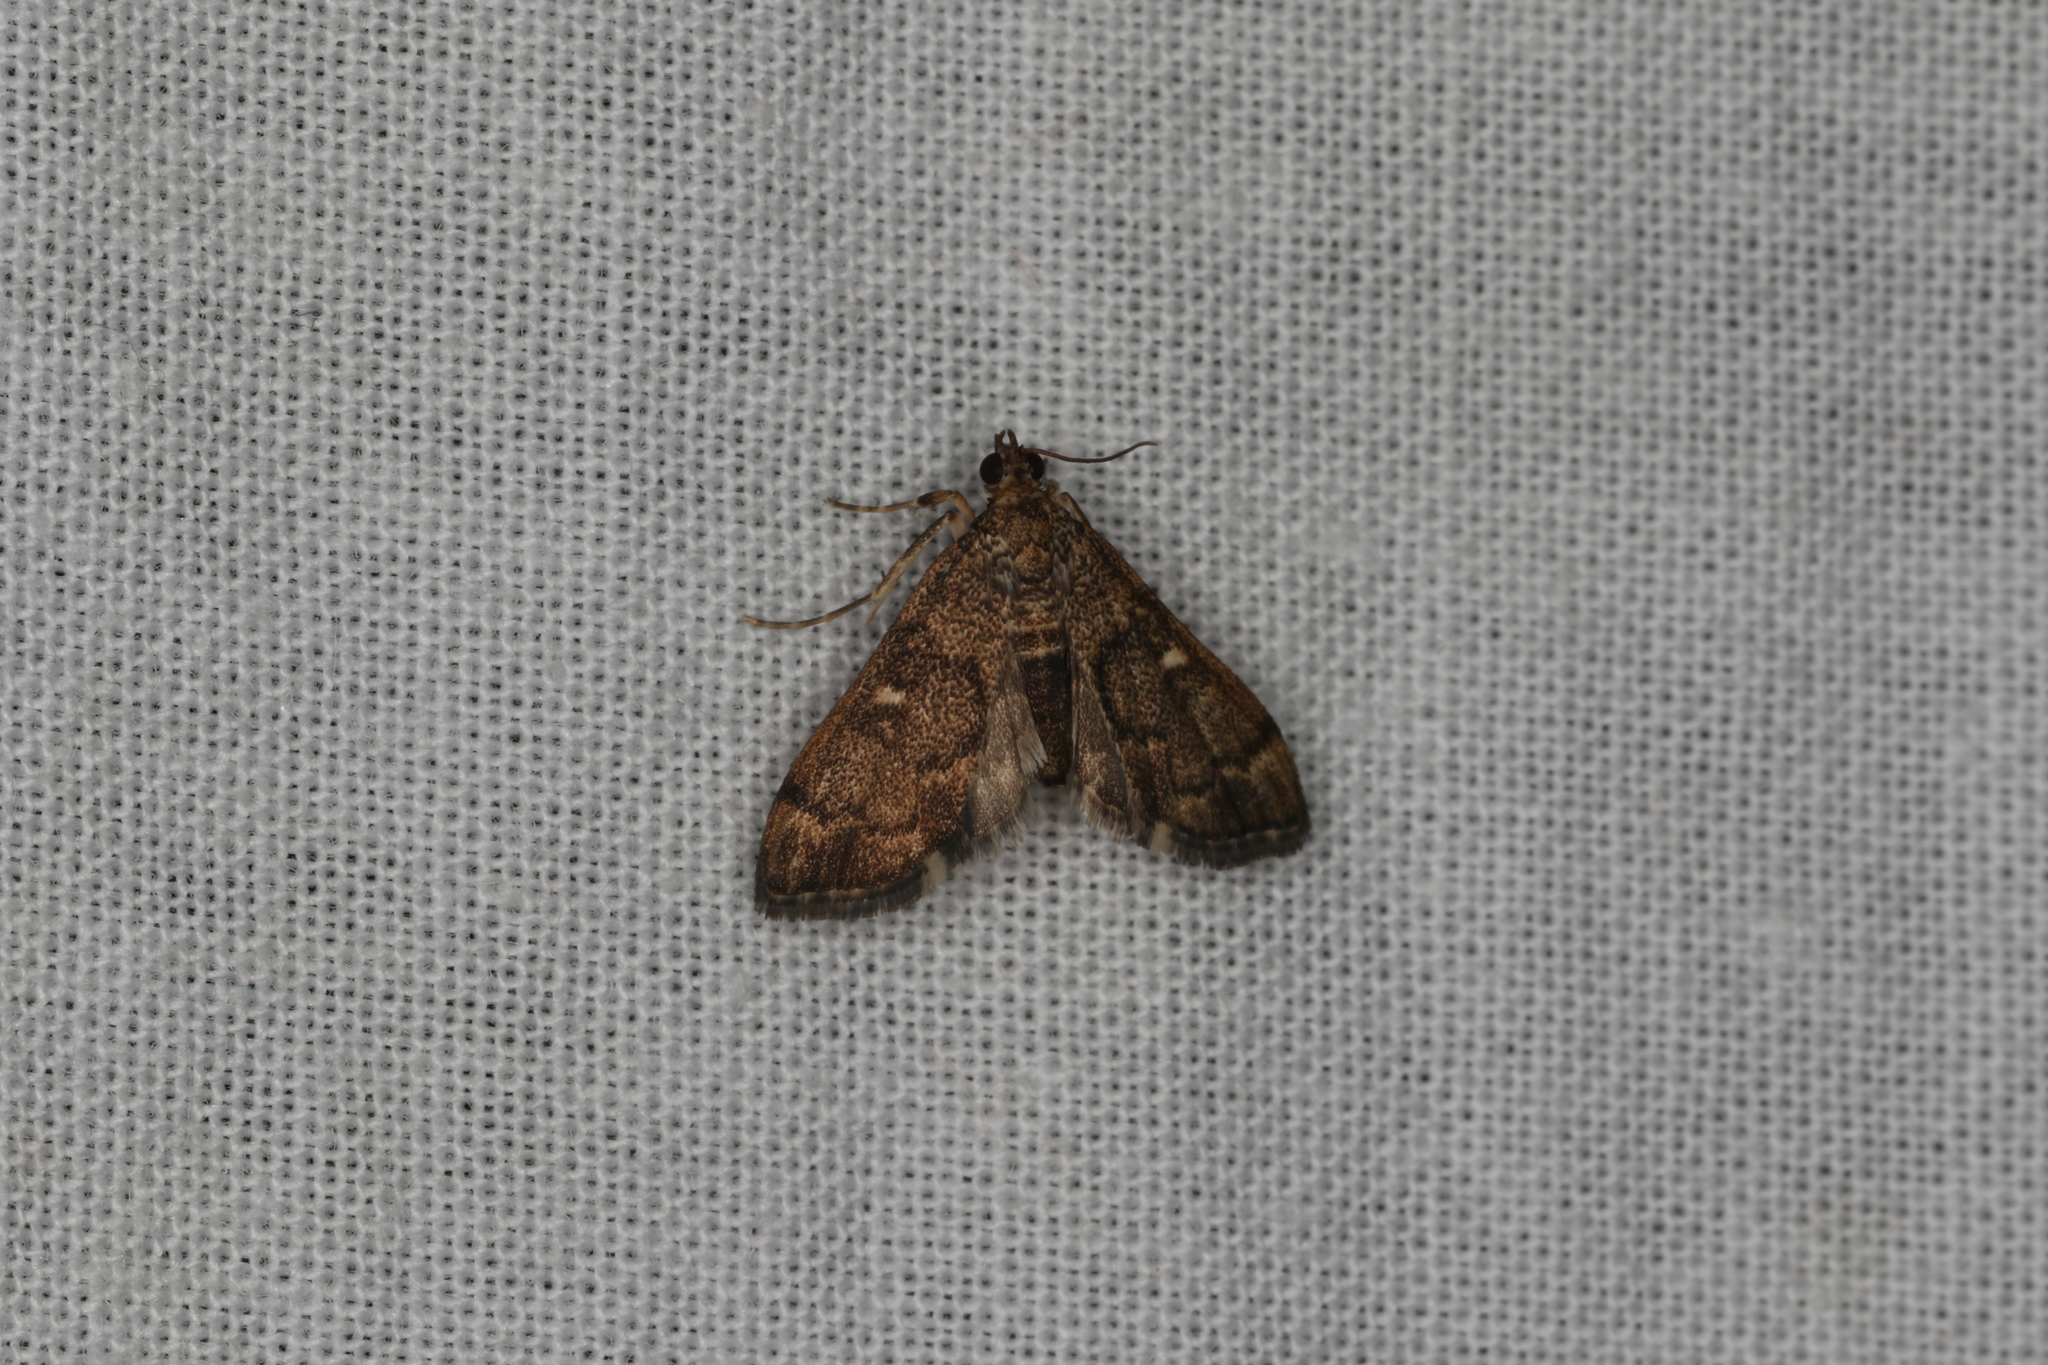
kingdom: Animalia
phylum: Arthropoda
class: Insecta
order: Lepidoptera
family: Crambidae
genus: Nacoleia
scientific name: Nacoleia rhoeoalis
